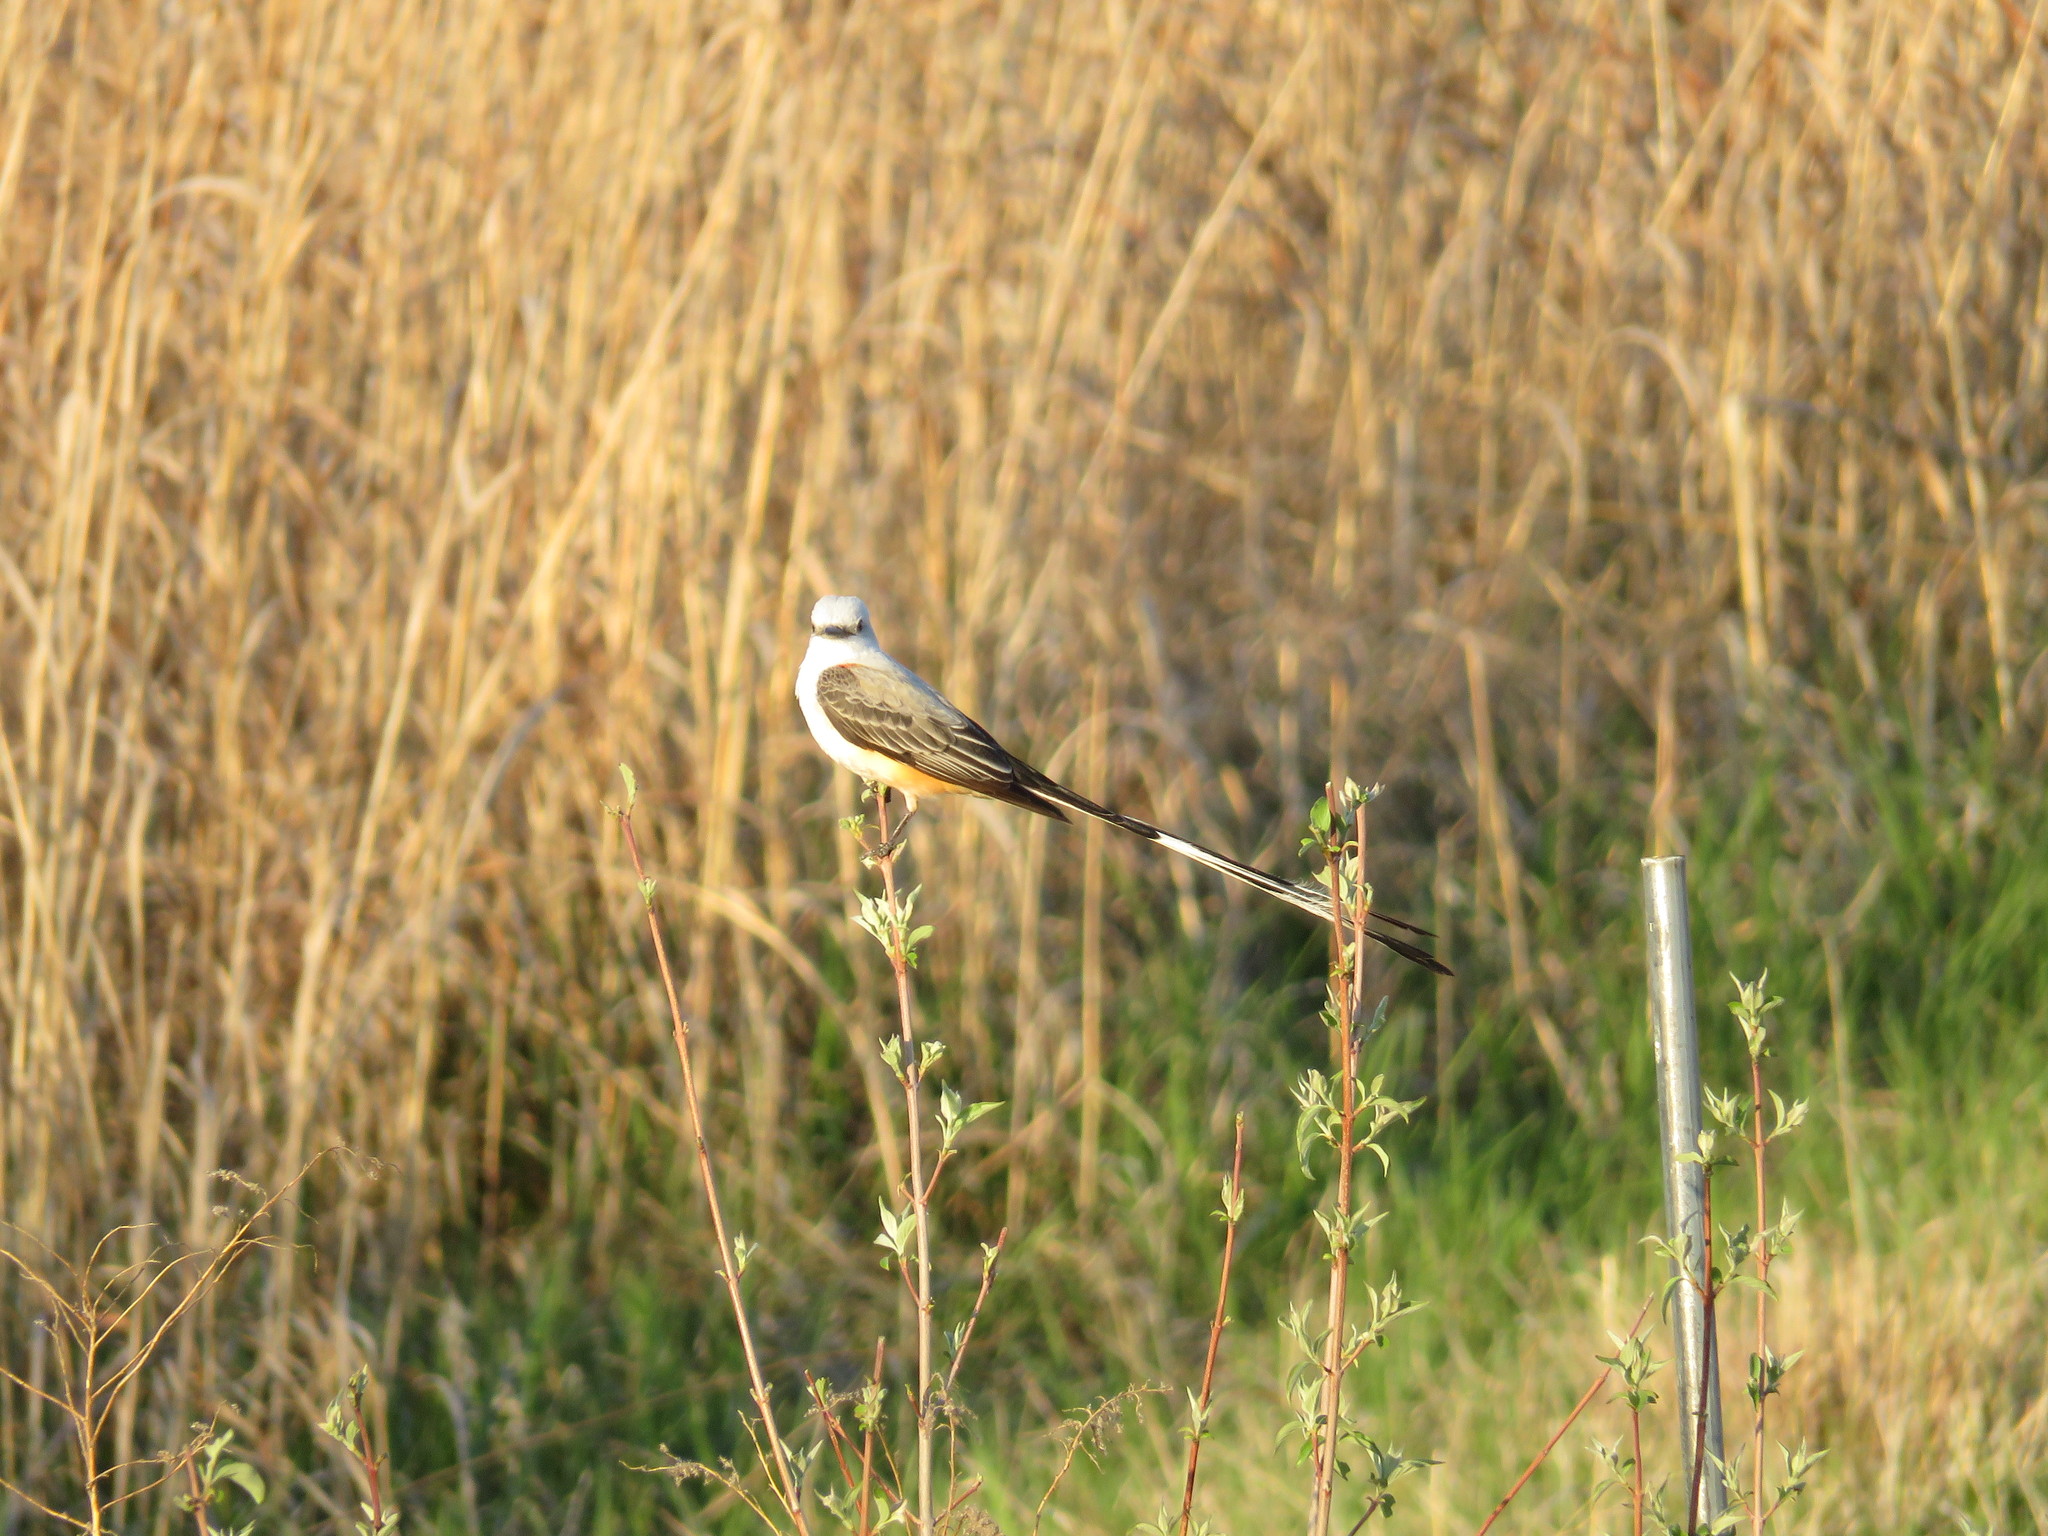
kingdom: Animalia
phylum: Chordata
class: Aves
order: Passeriformes
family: Tyrannidae
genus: Tyrannus
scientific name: Tyrannus forficatus
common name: Scissor-tailed flycatcher
